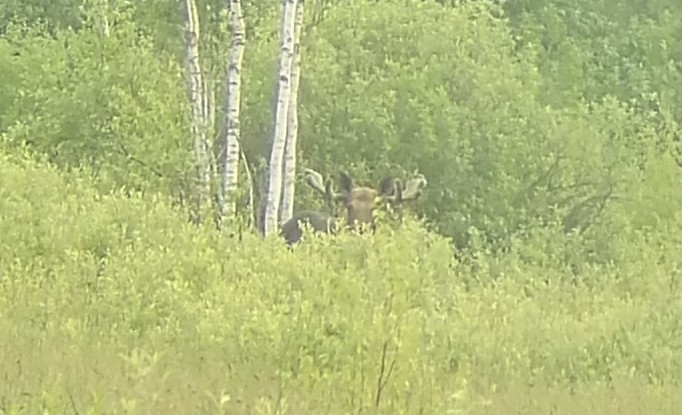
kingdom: Animalia
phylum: Chordata
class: Mammalia
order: Artiodactyla
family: Cervidae
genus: Alces
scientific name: Alces alces
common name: Moose
